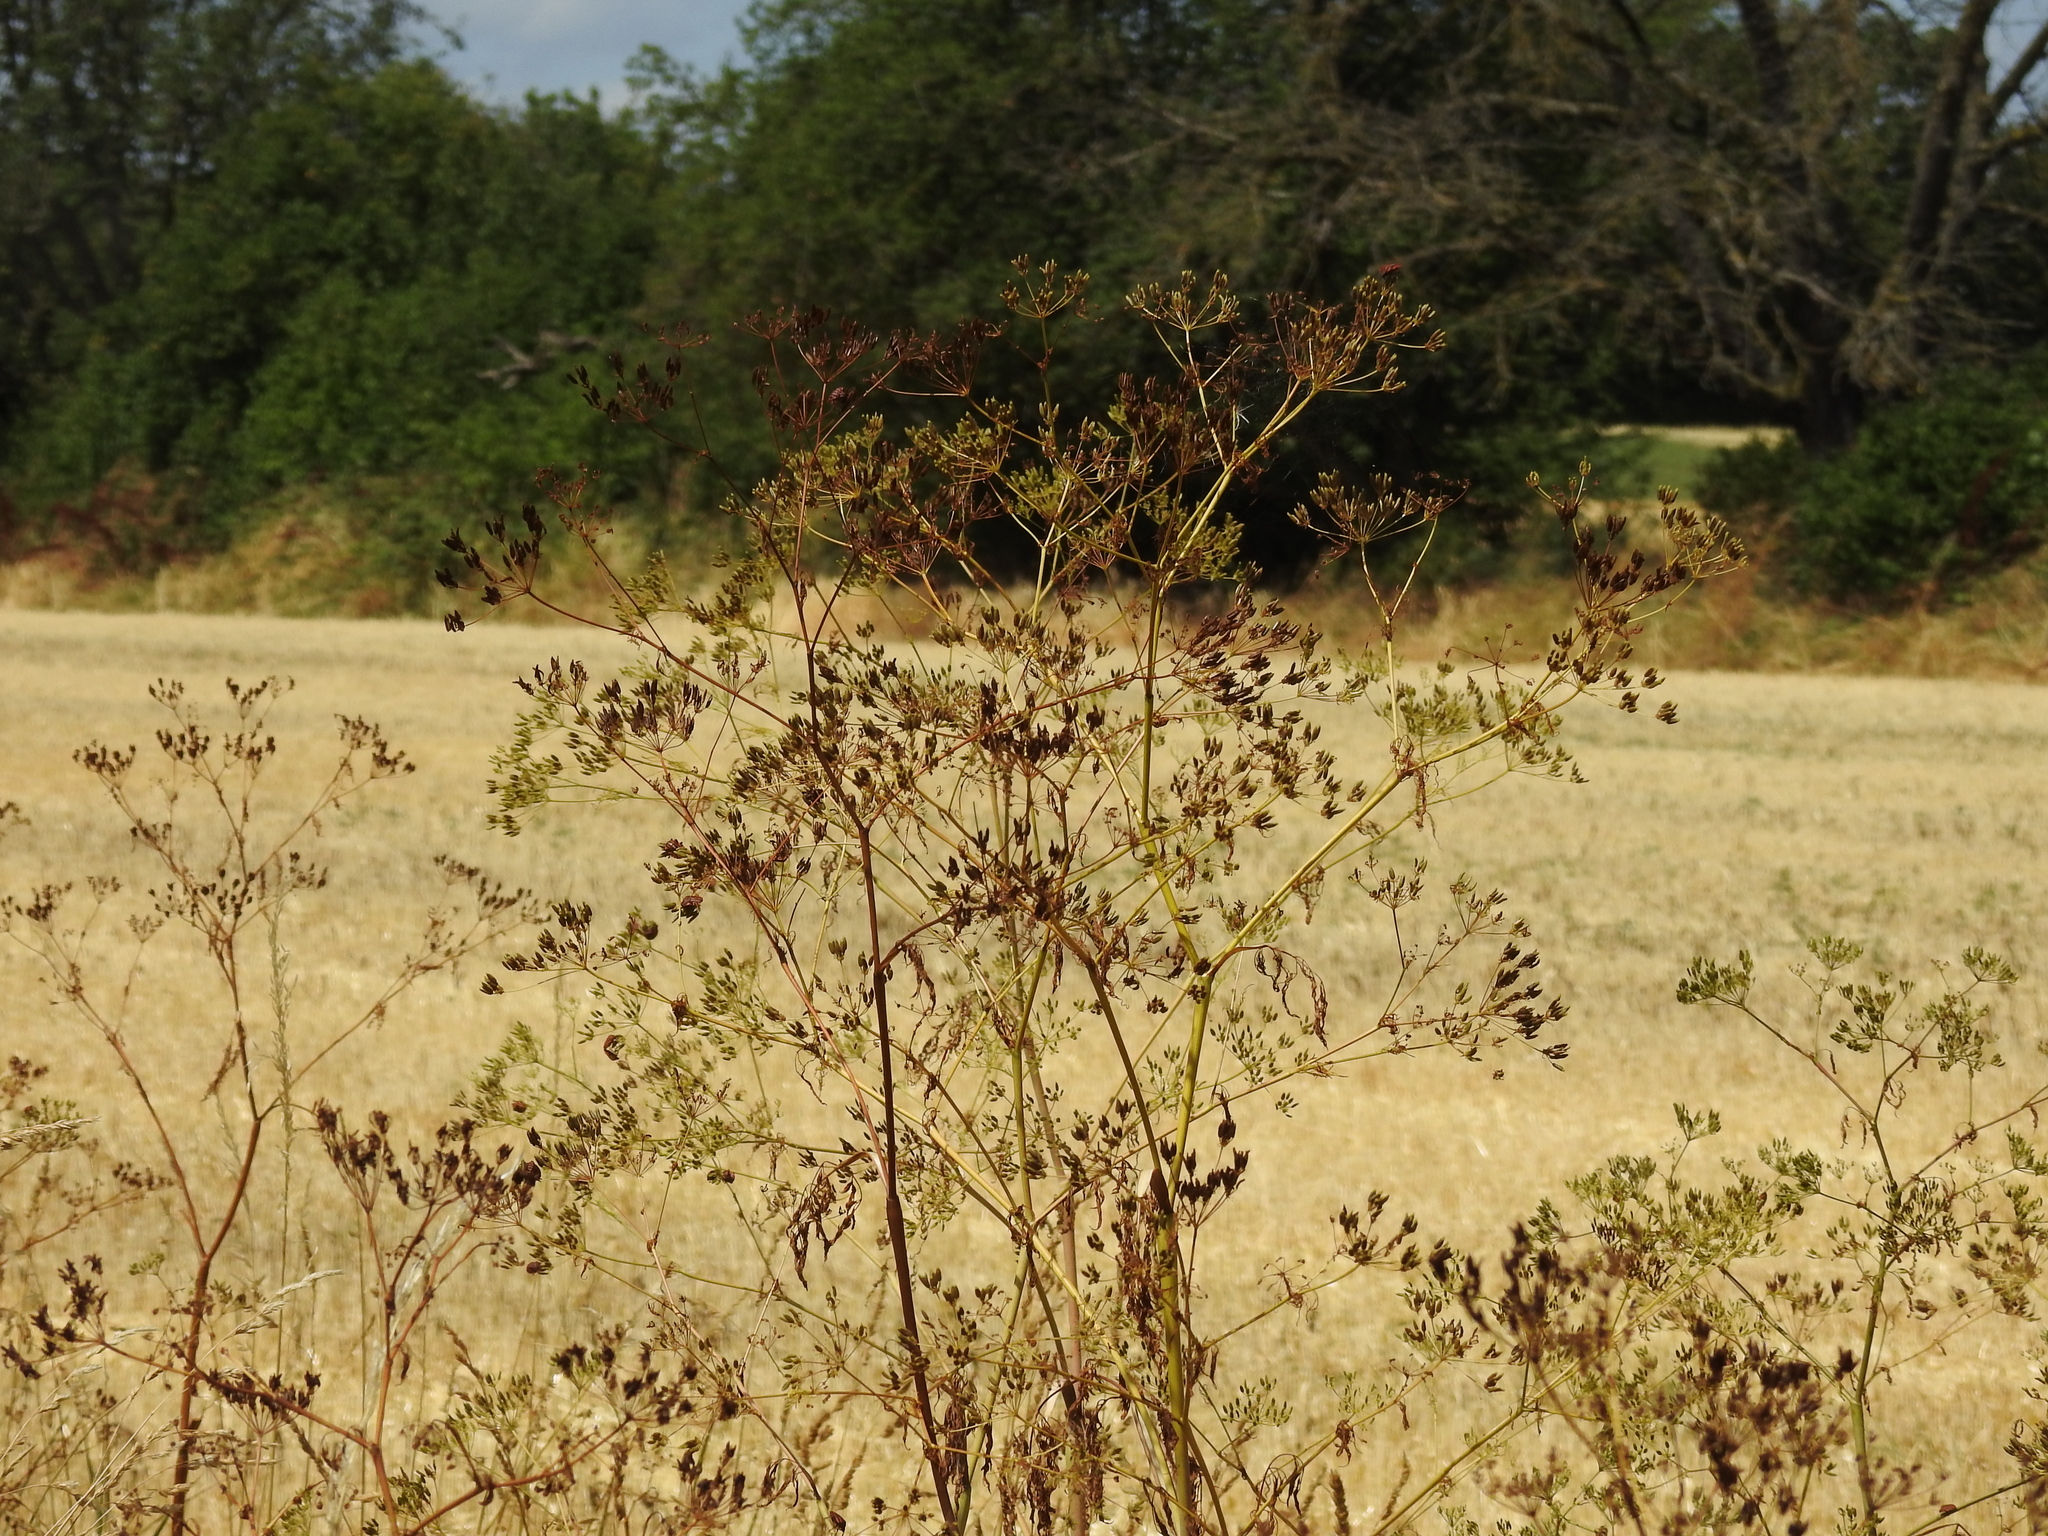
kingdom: Plantae
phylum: Tracheophyta
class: Magnoliopsida
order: Apiales
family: Apiaceae
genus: Conium
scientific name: Conium maculatum
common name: Hemlock
